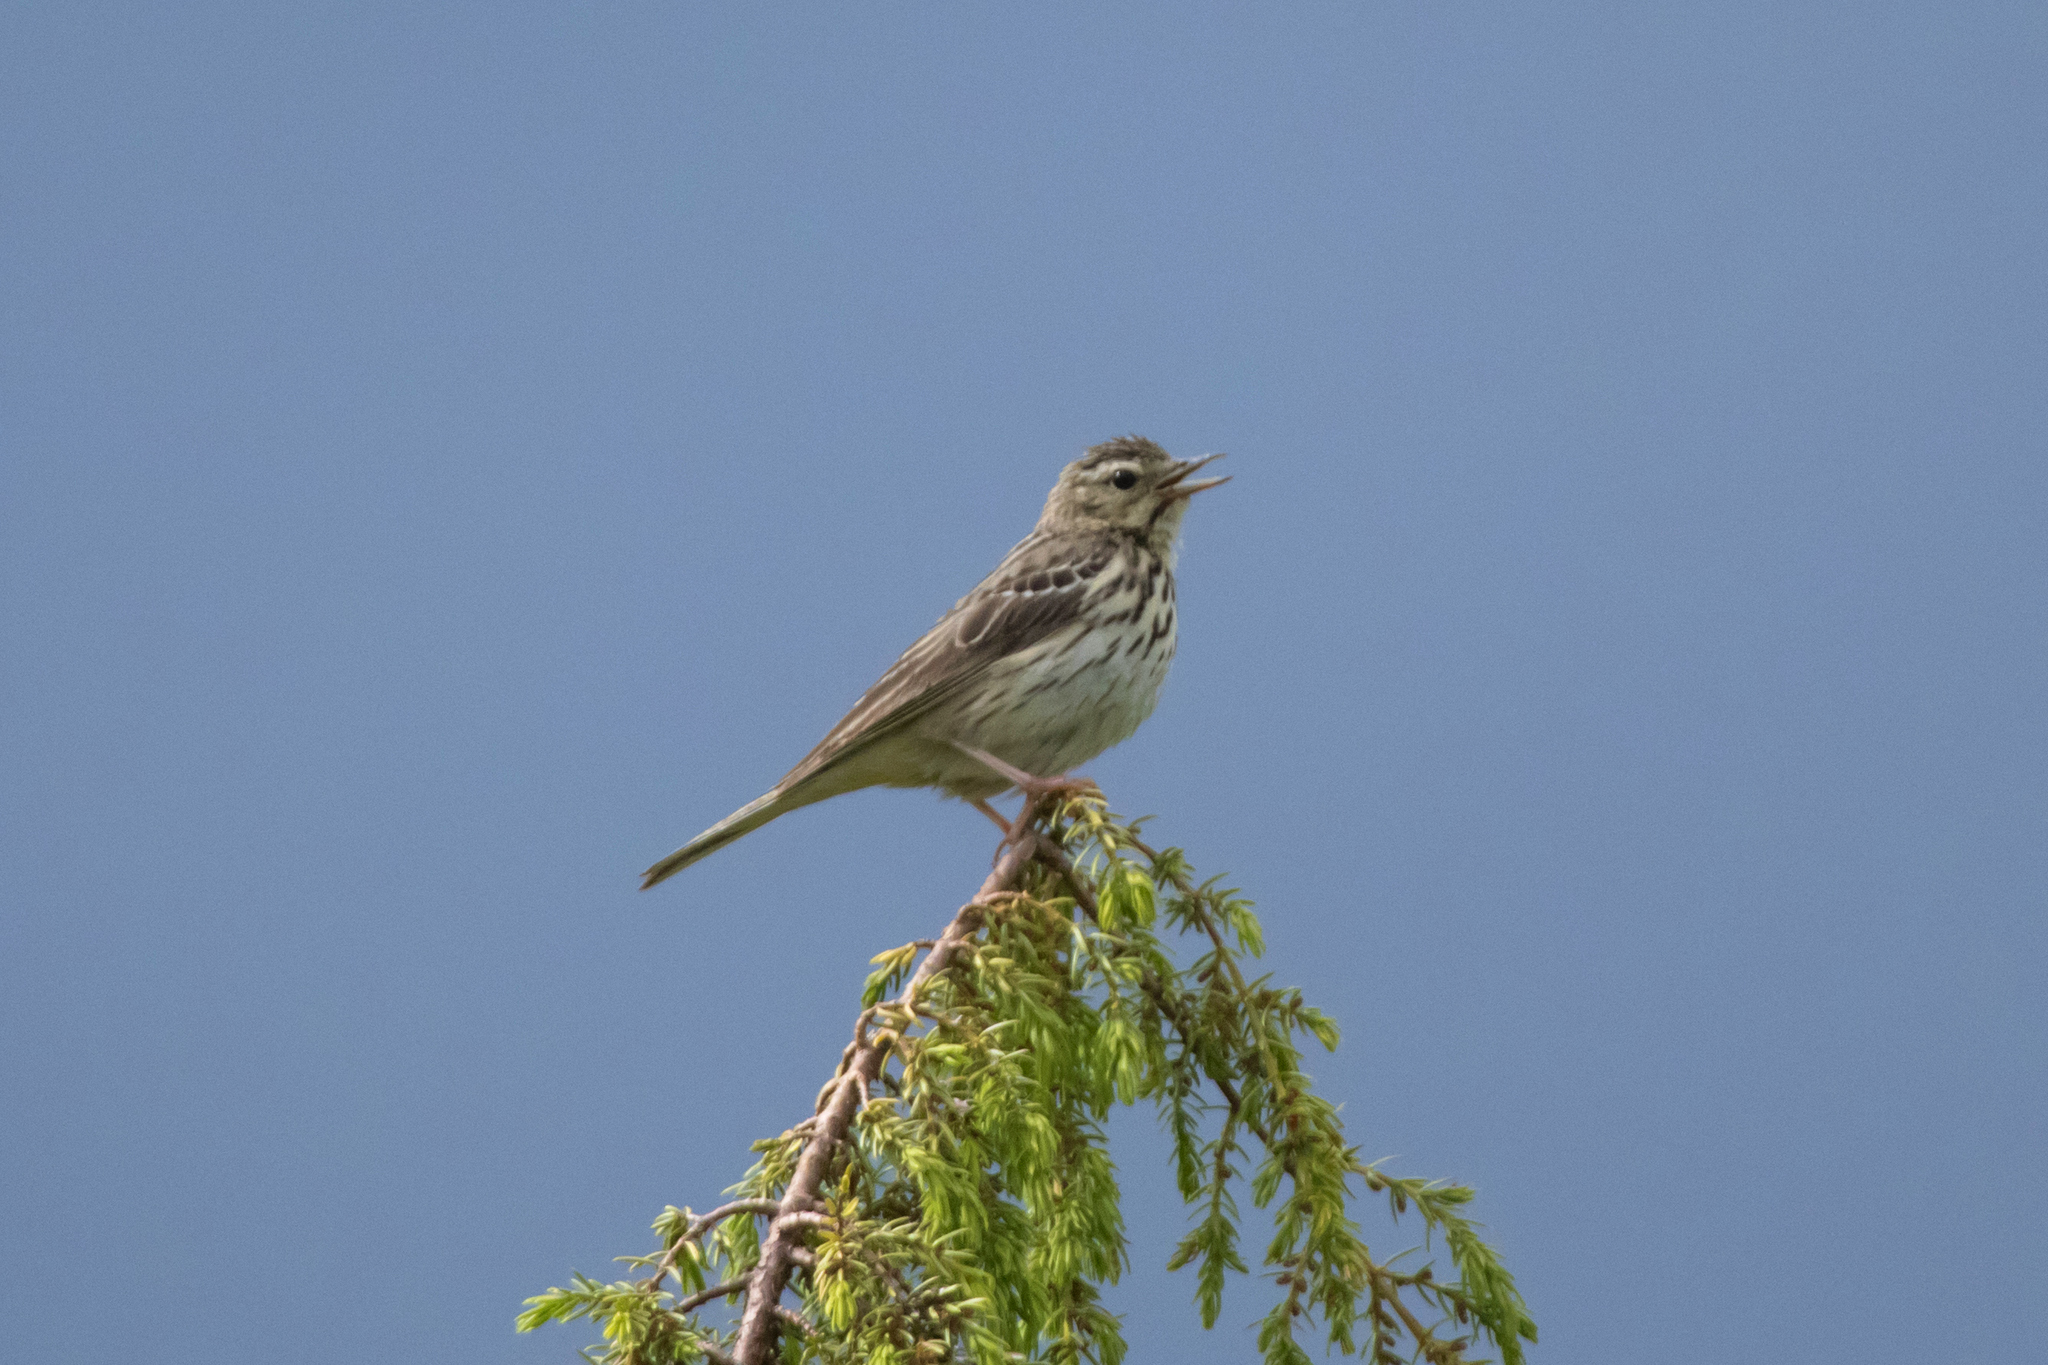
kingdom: Animalia
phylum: Chordata
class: Aves
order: Passeriformes
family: Motacillidae
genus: Anthus
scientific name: Anthus trivialis
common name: Tree pipit
